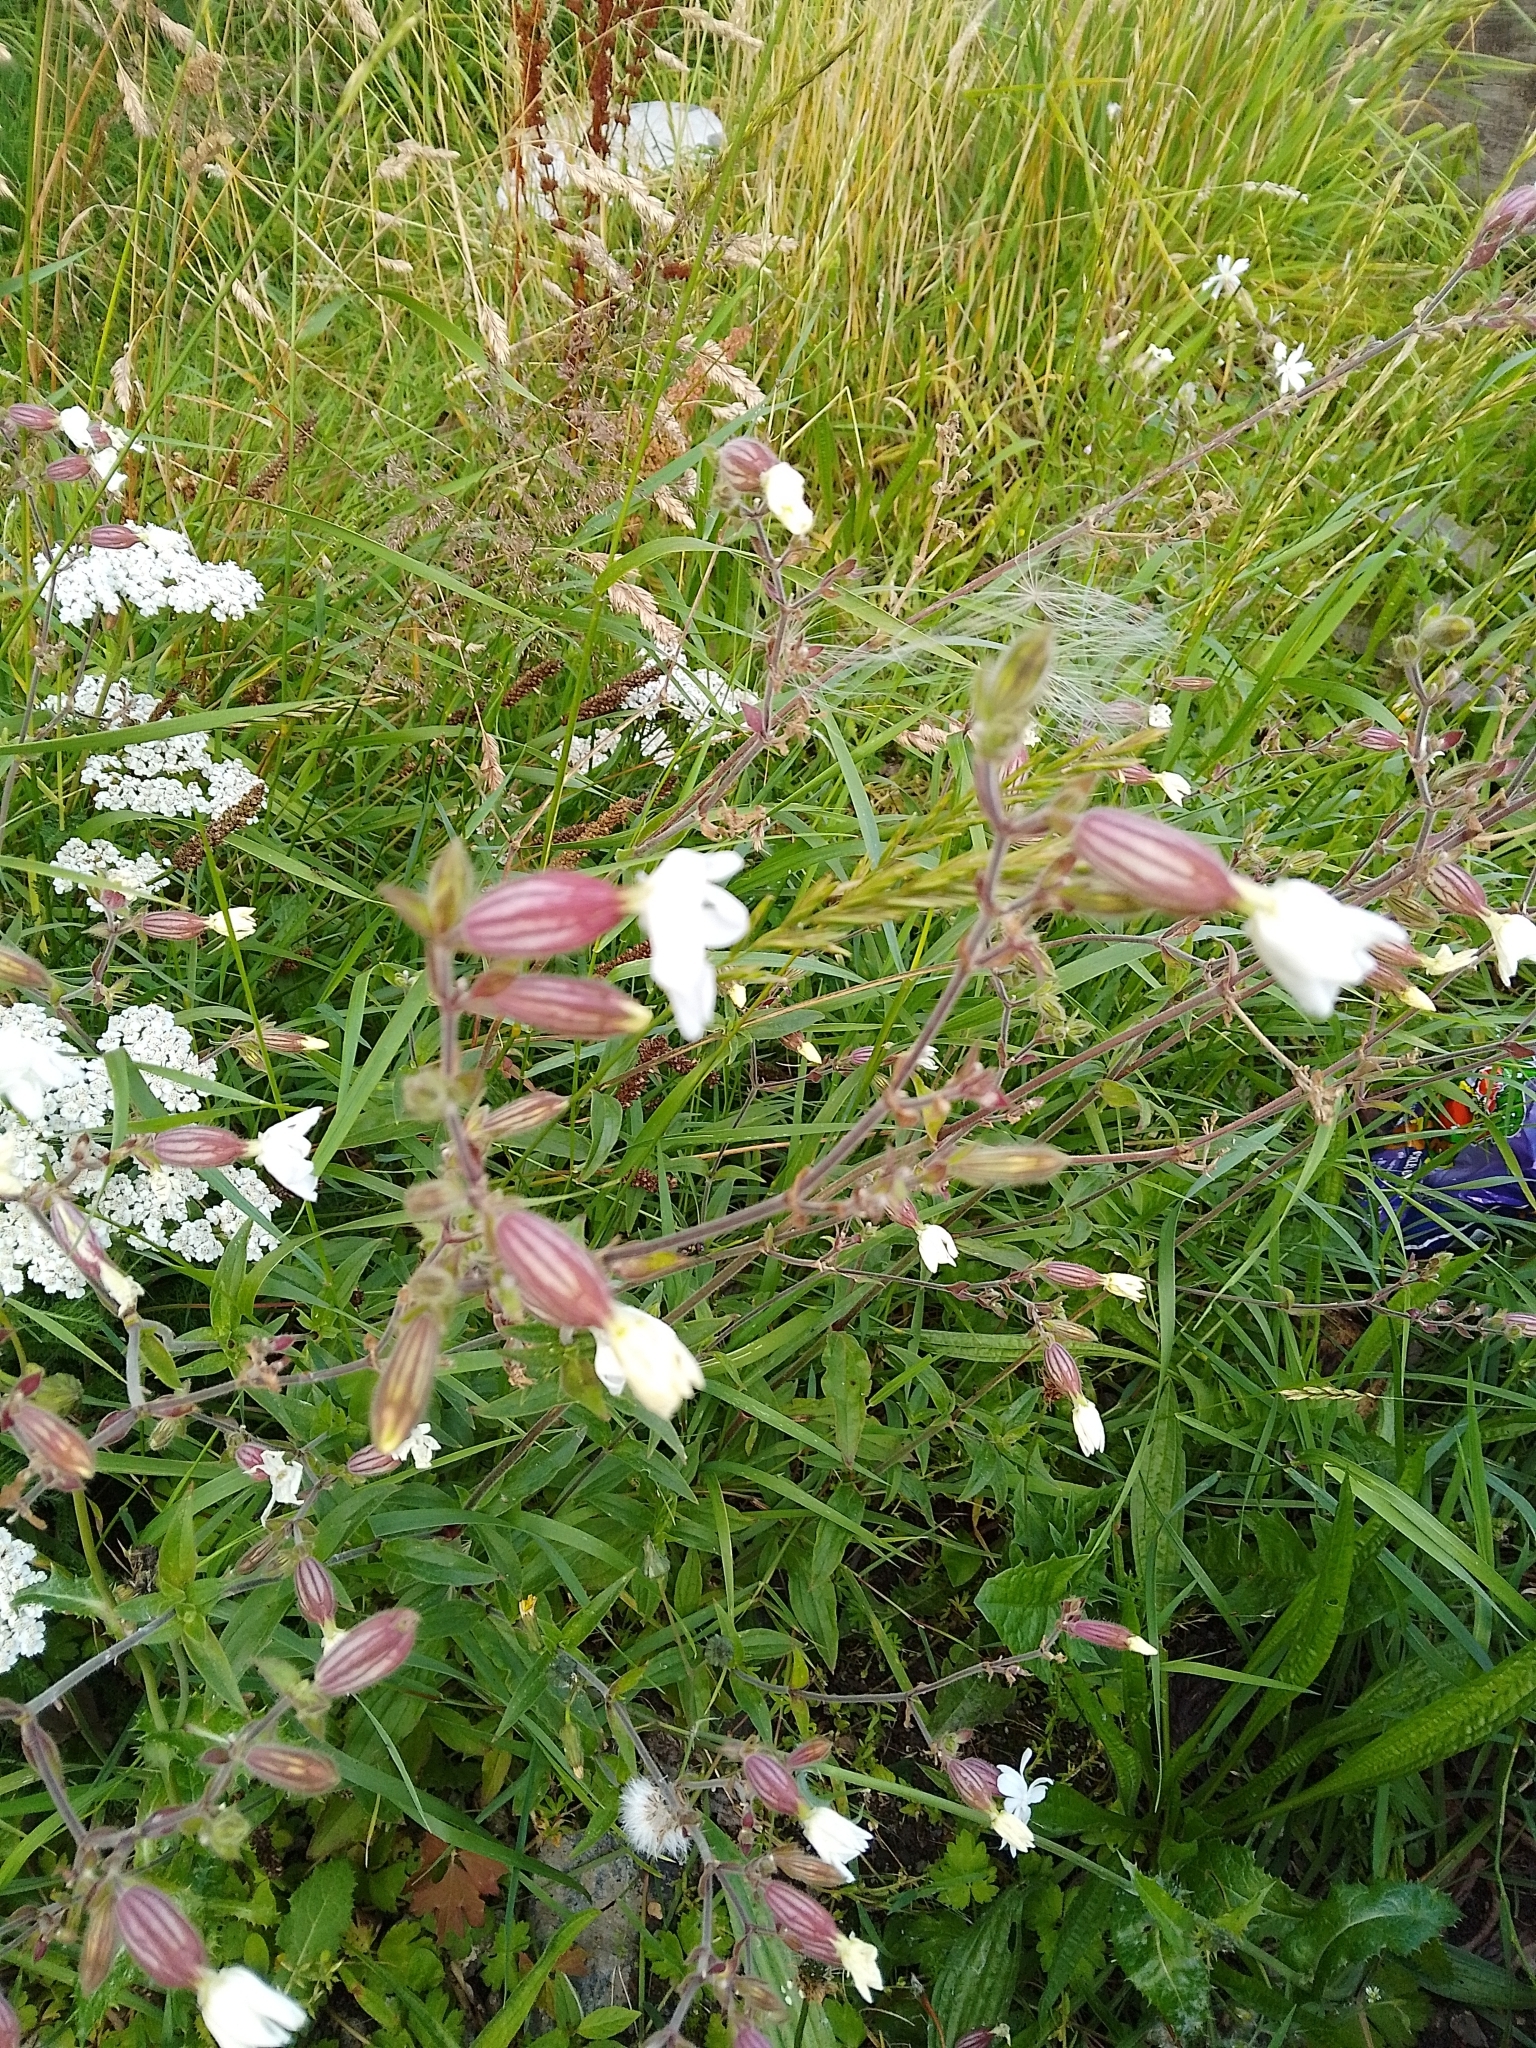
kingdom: Plantae
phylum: Tracheophyta
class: Magnoliopsida
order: Caryophyllales
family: Caryophyllaceae
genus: Silene
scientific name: Silene latifolia
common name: White campion
